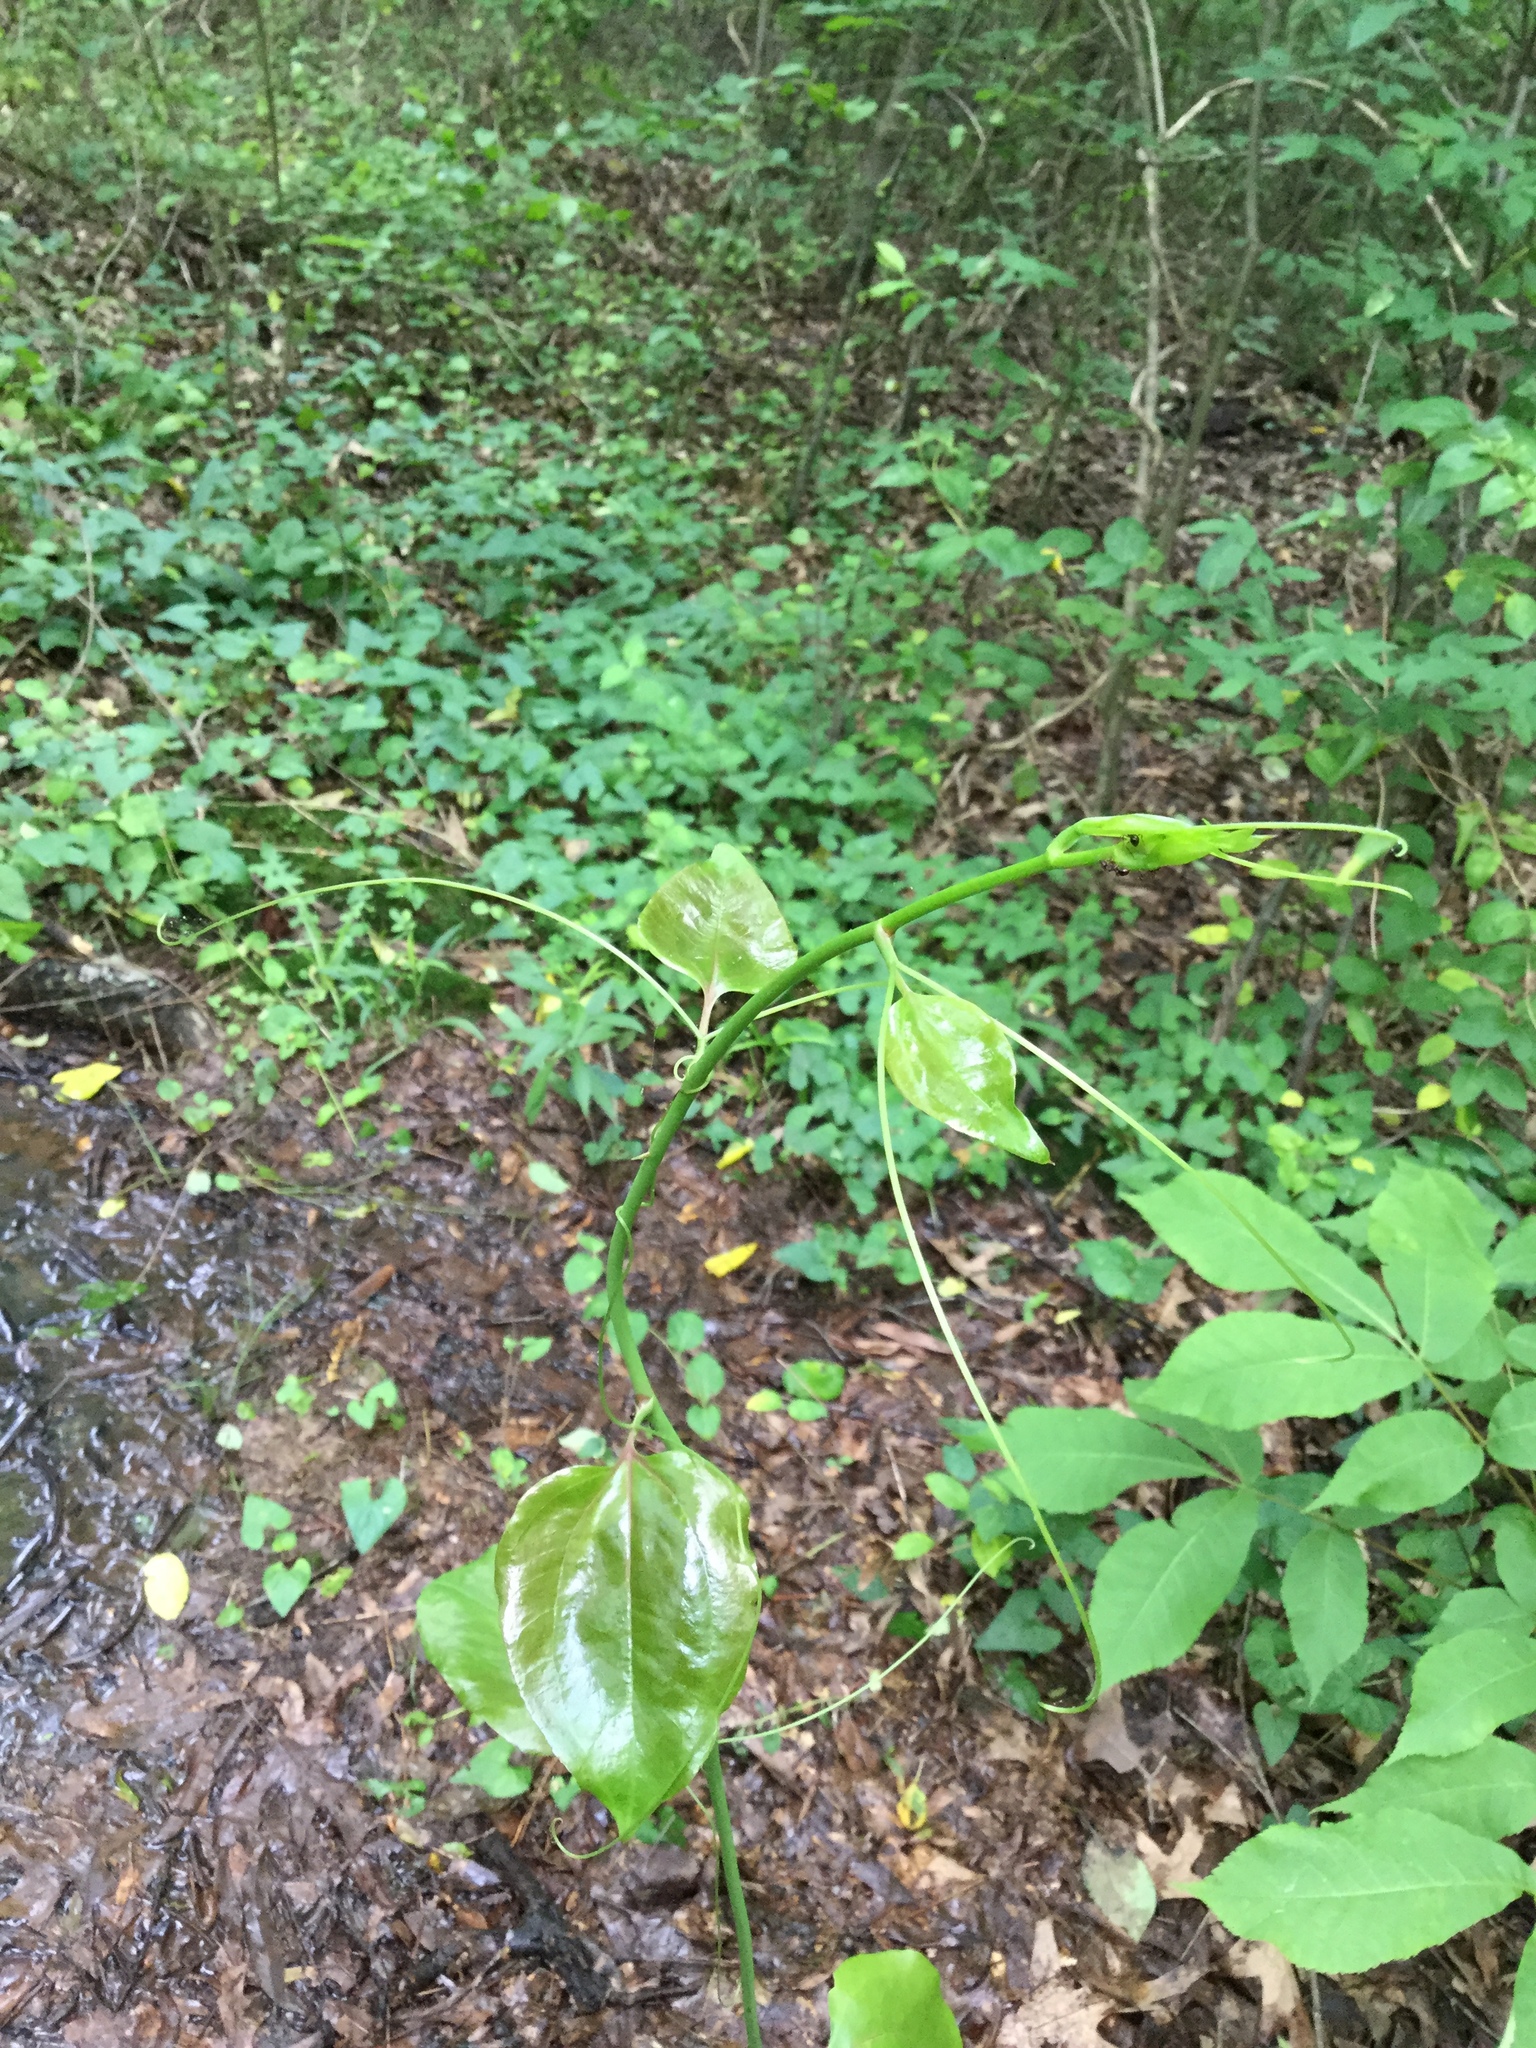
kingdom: Plantae
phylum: Tracheophyta
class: Liliopsida
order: Liliales
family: Smilacaceae
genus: Smilax
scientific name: Smilax rotundifolia
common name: Bullbriar
